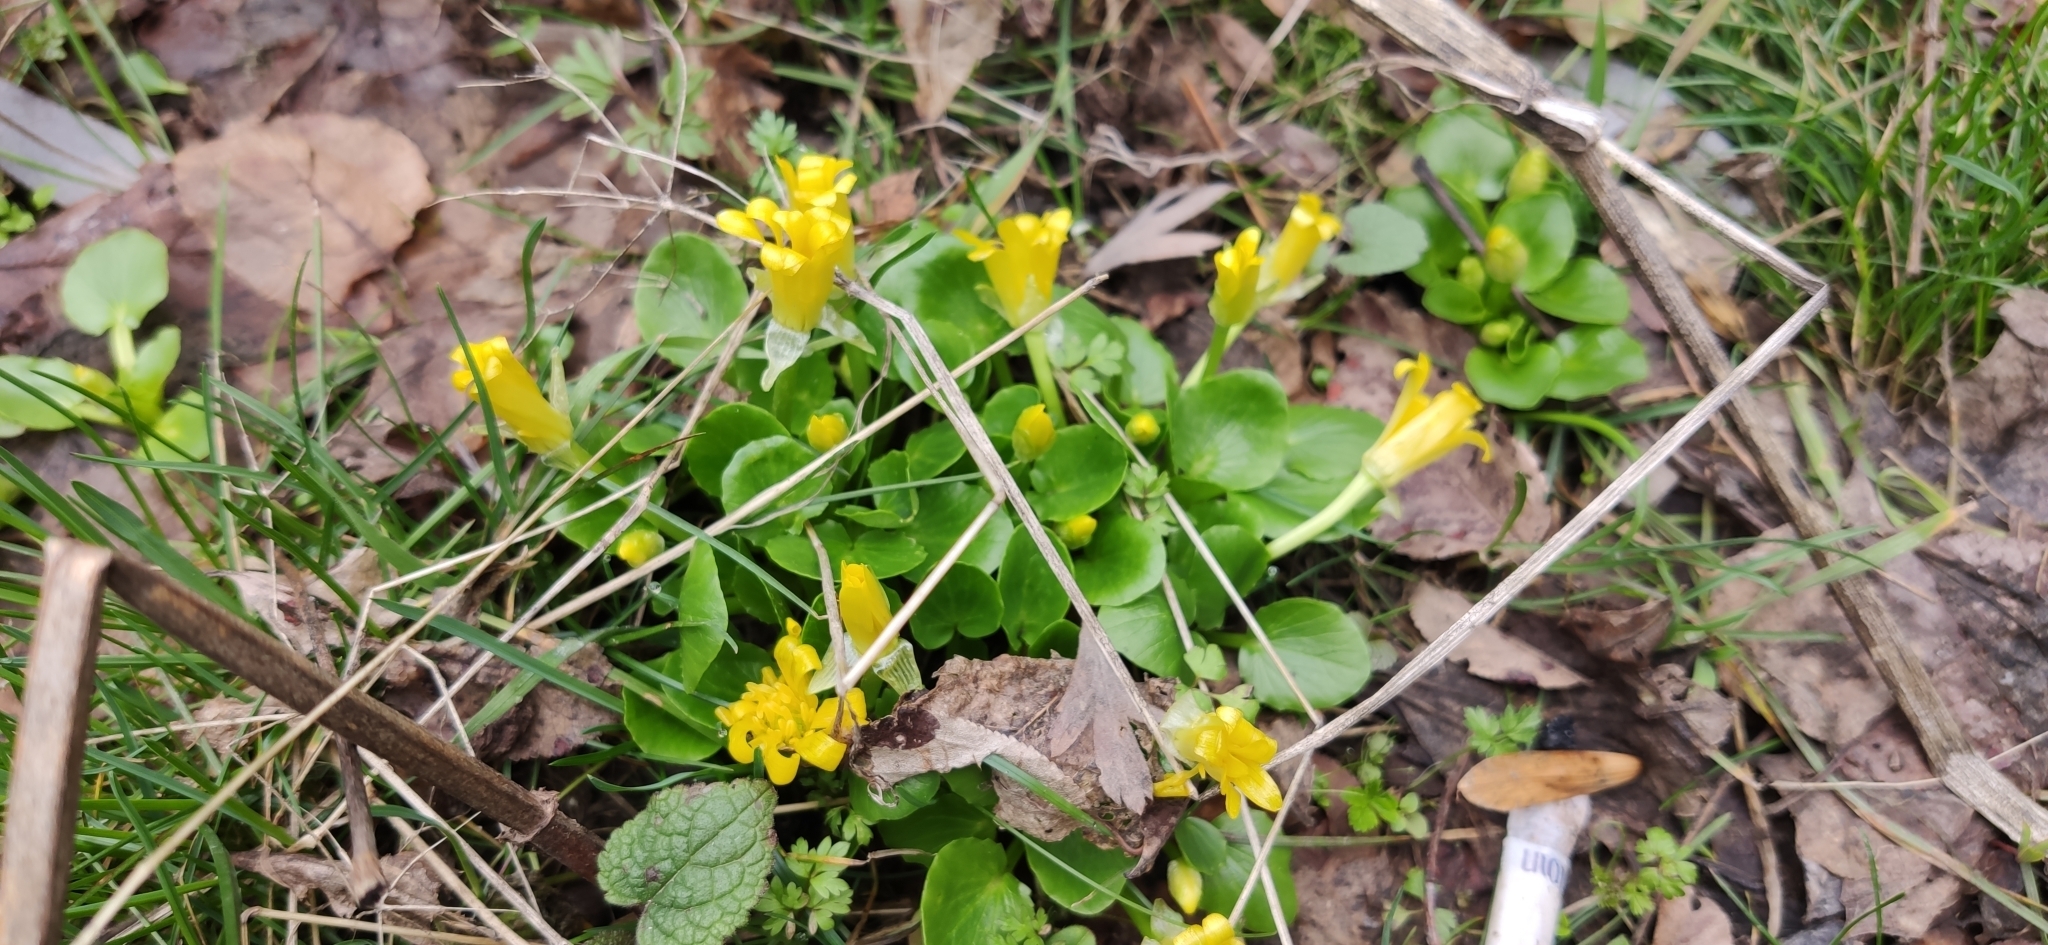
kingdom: Plantae
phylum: Tracheophyta
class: Magnoliopsida
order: Ranunculales
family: Ranunculaceae
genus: Ficaria
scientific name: Ficaria verna
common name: Lesser celandine
